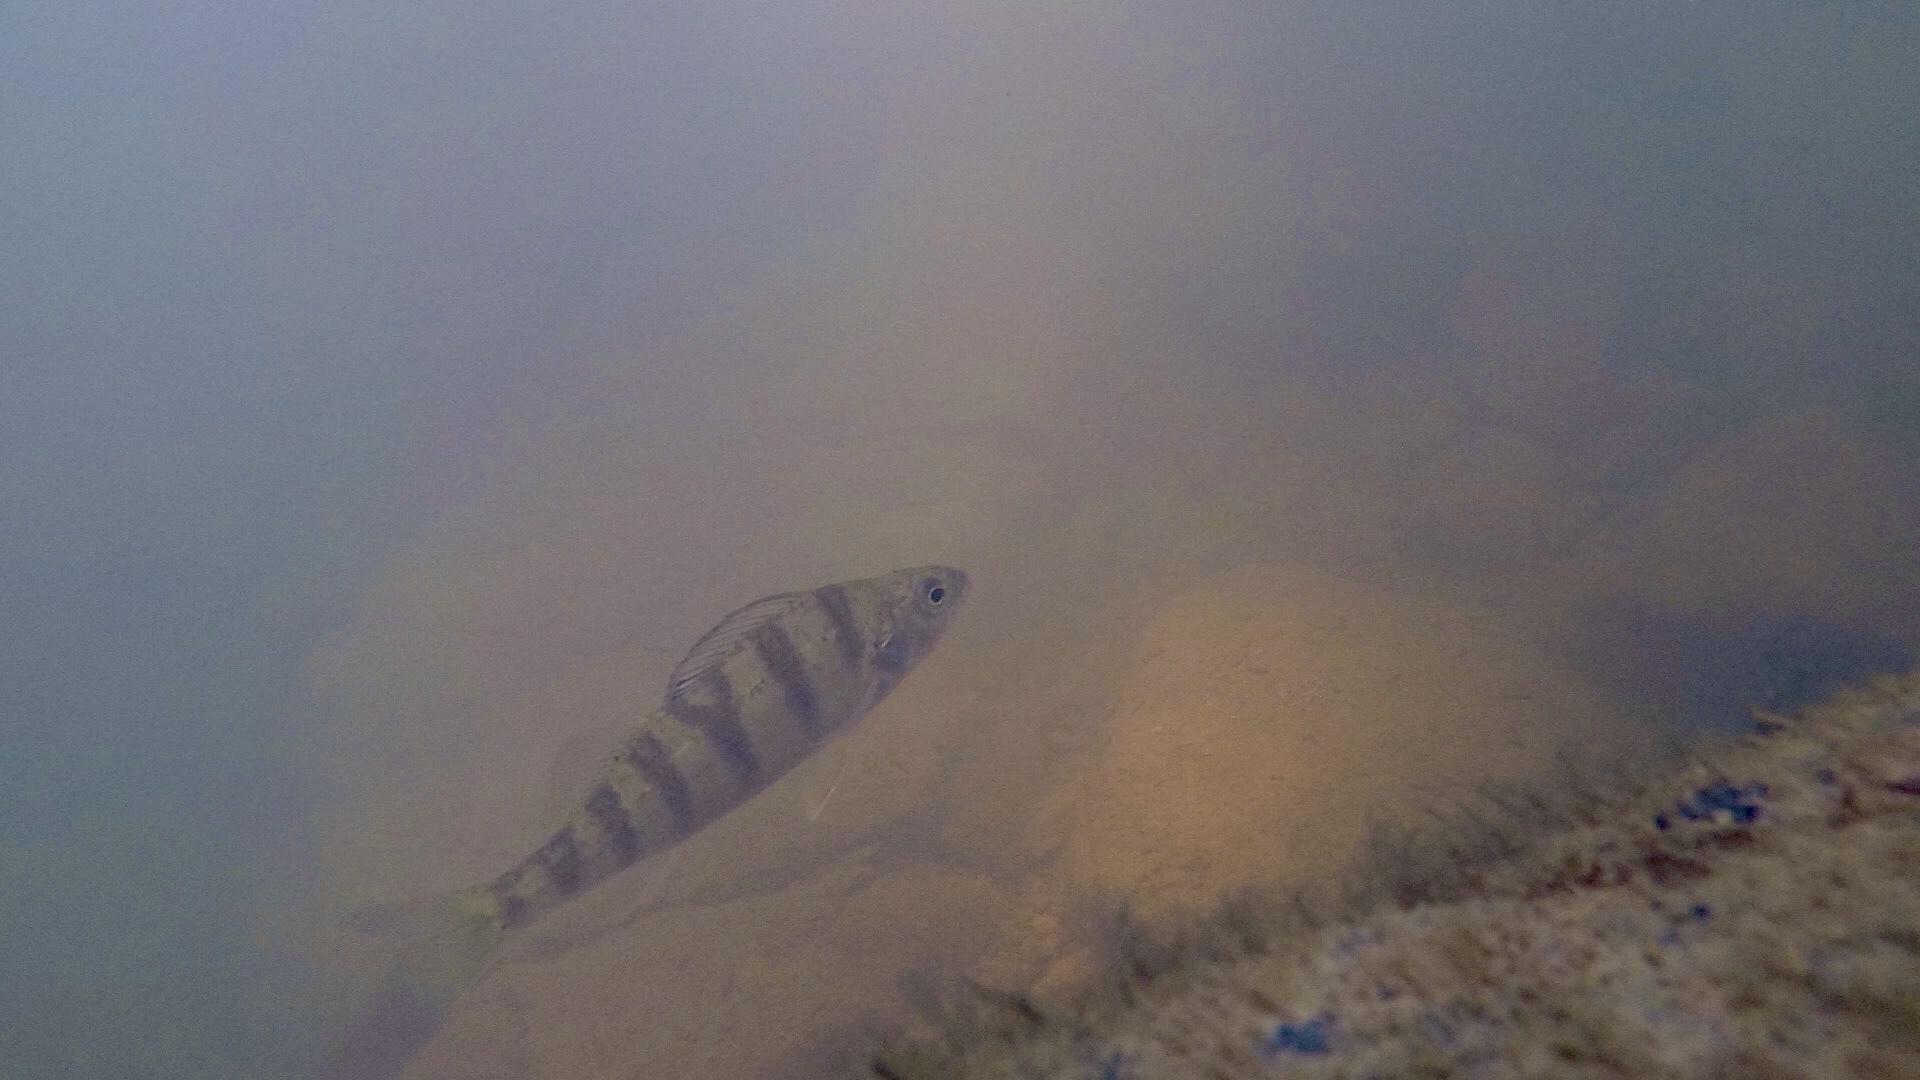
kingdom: Animalia
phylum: Chordata
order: Perciformes
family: Percidae
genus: Perca
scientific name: Perca flavescens
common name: Yellow perch
